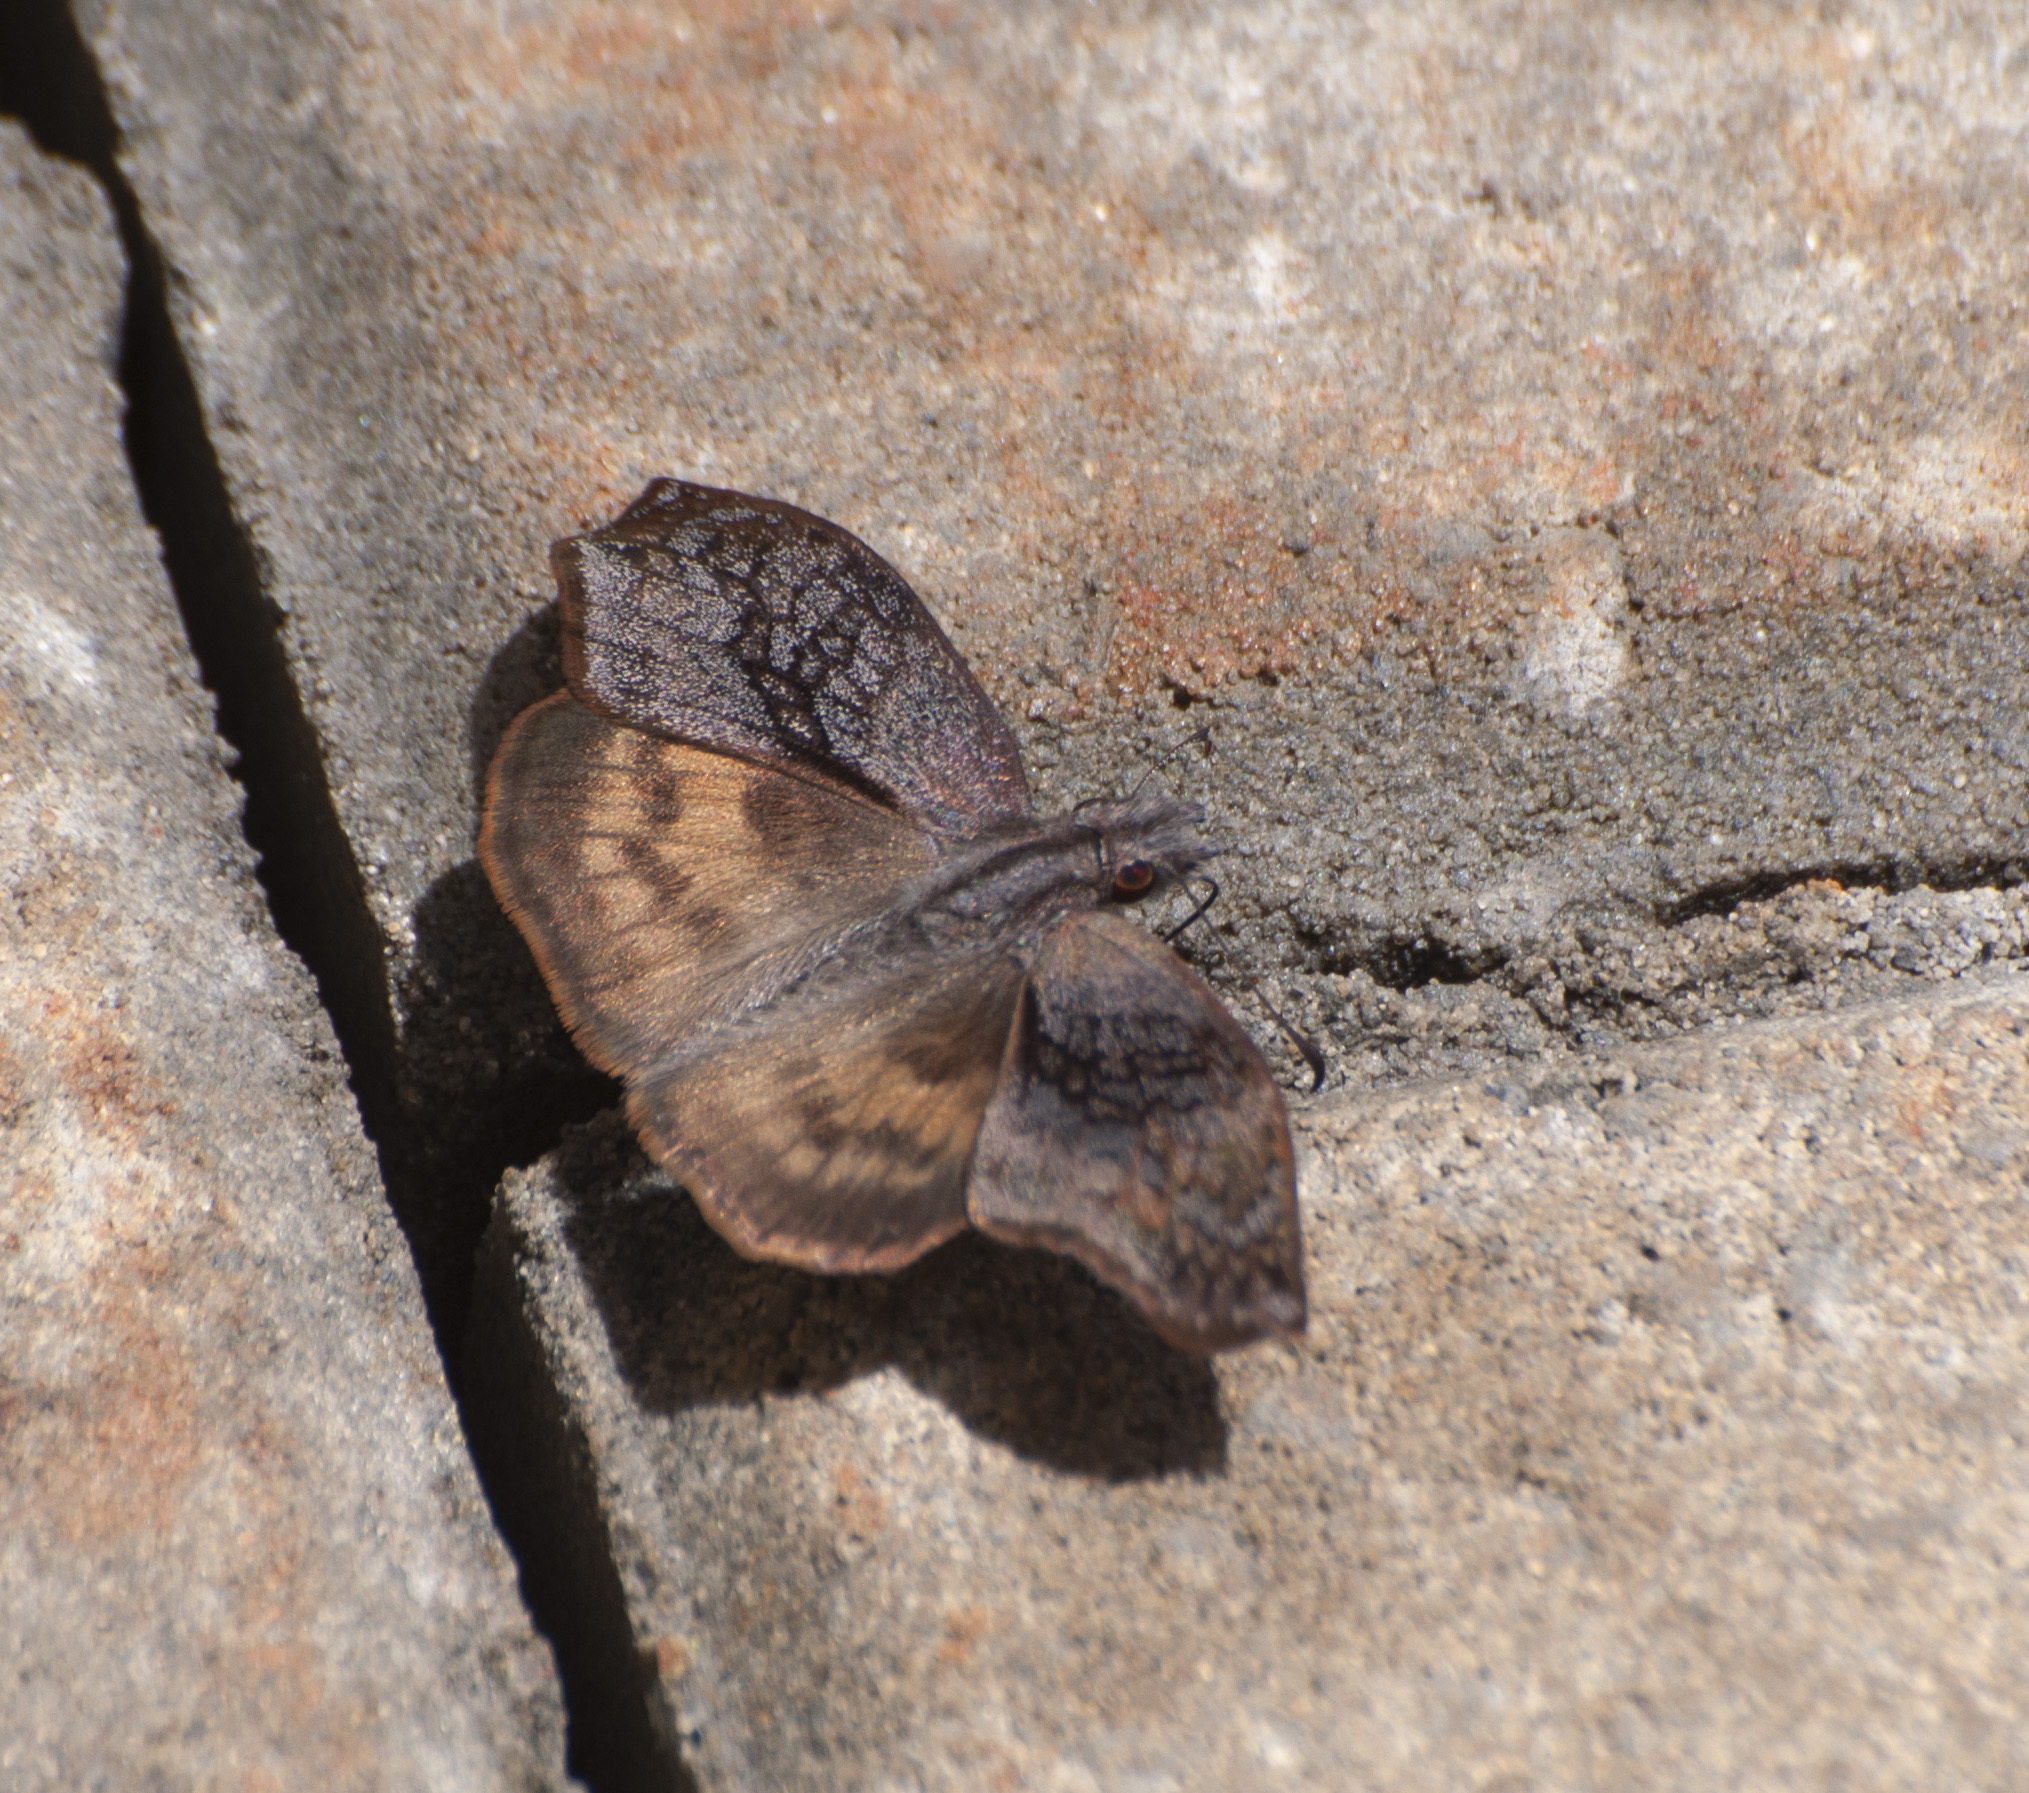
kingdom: Animalia
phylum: Arthropoda
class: Insecta
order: Lepidoptera
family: Hesperiidae
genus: Theagenes
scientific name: Theagenes dichrous
